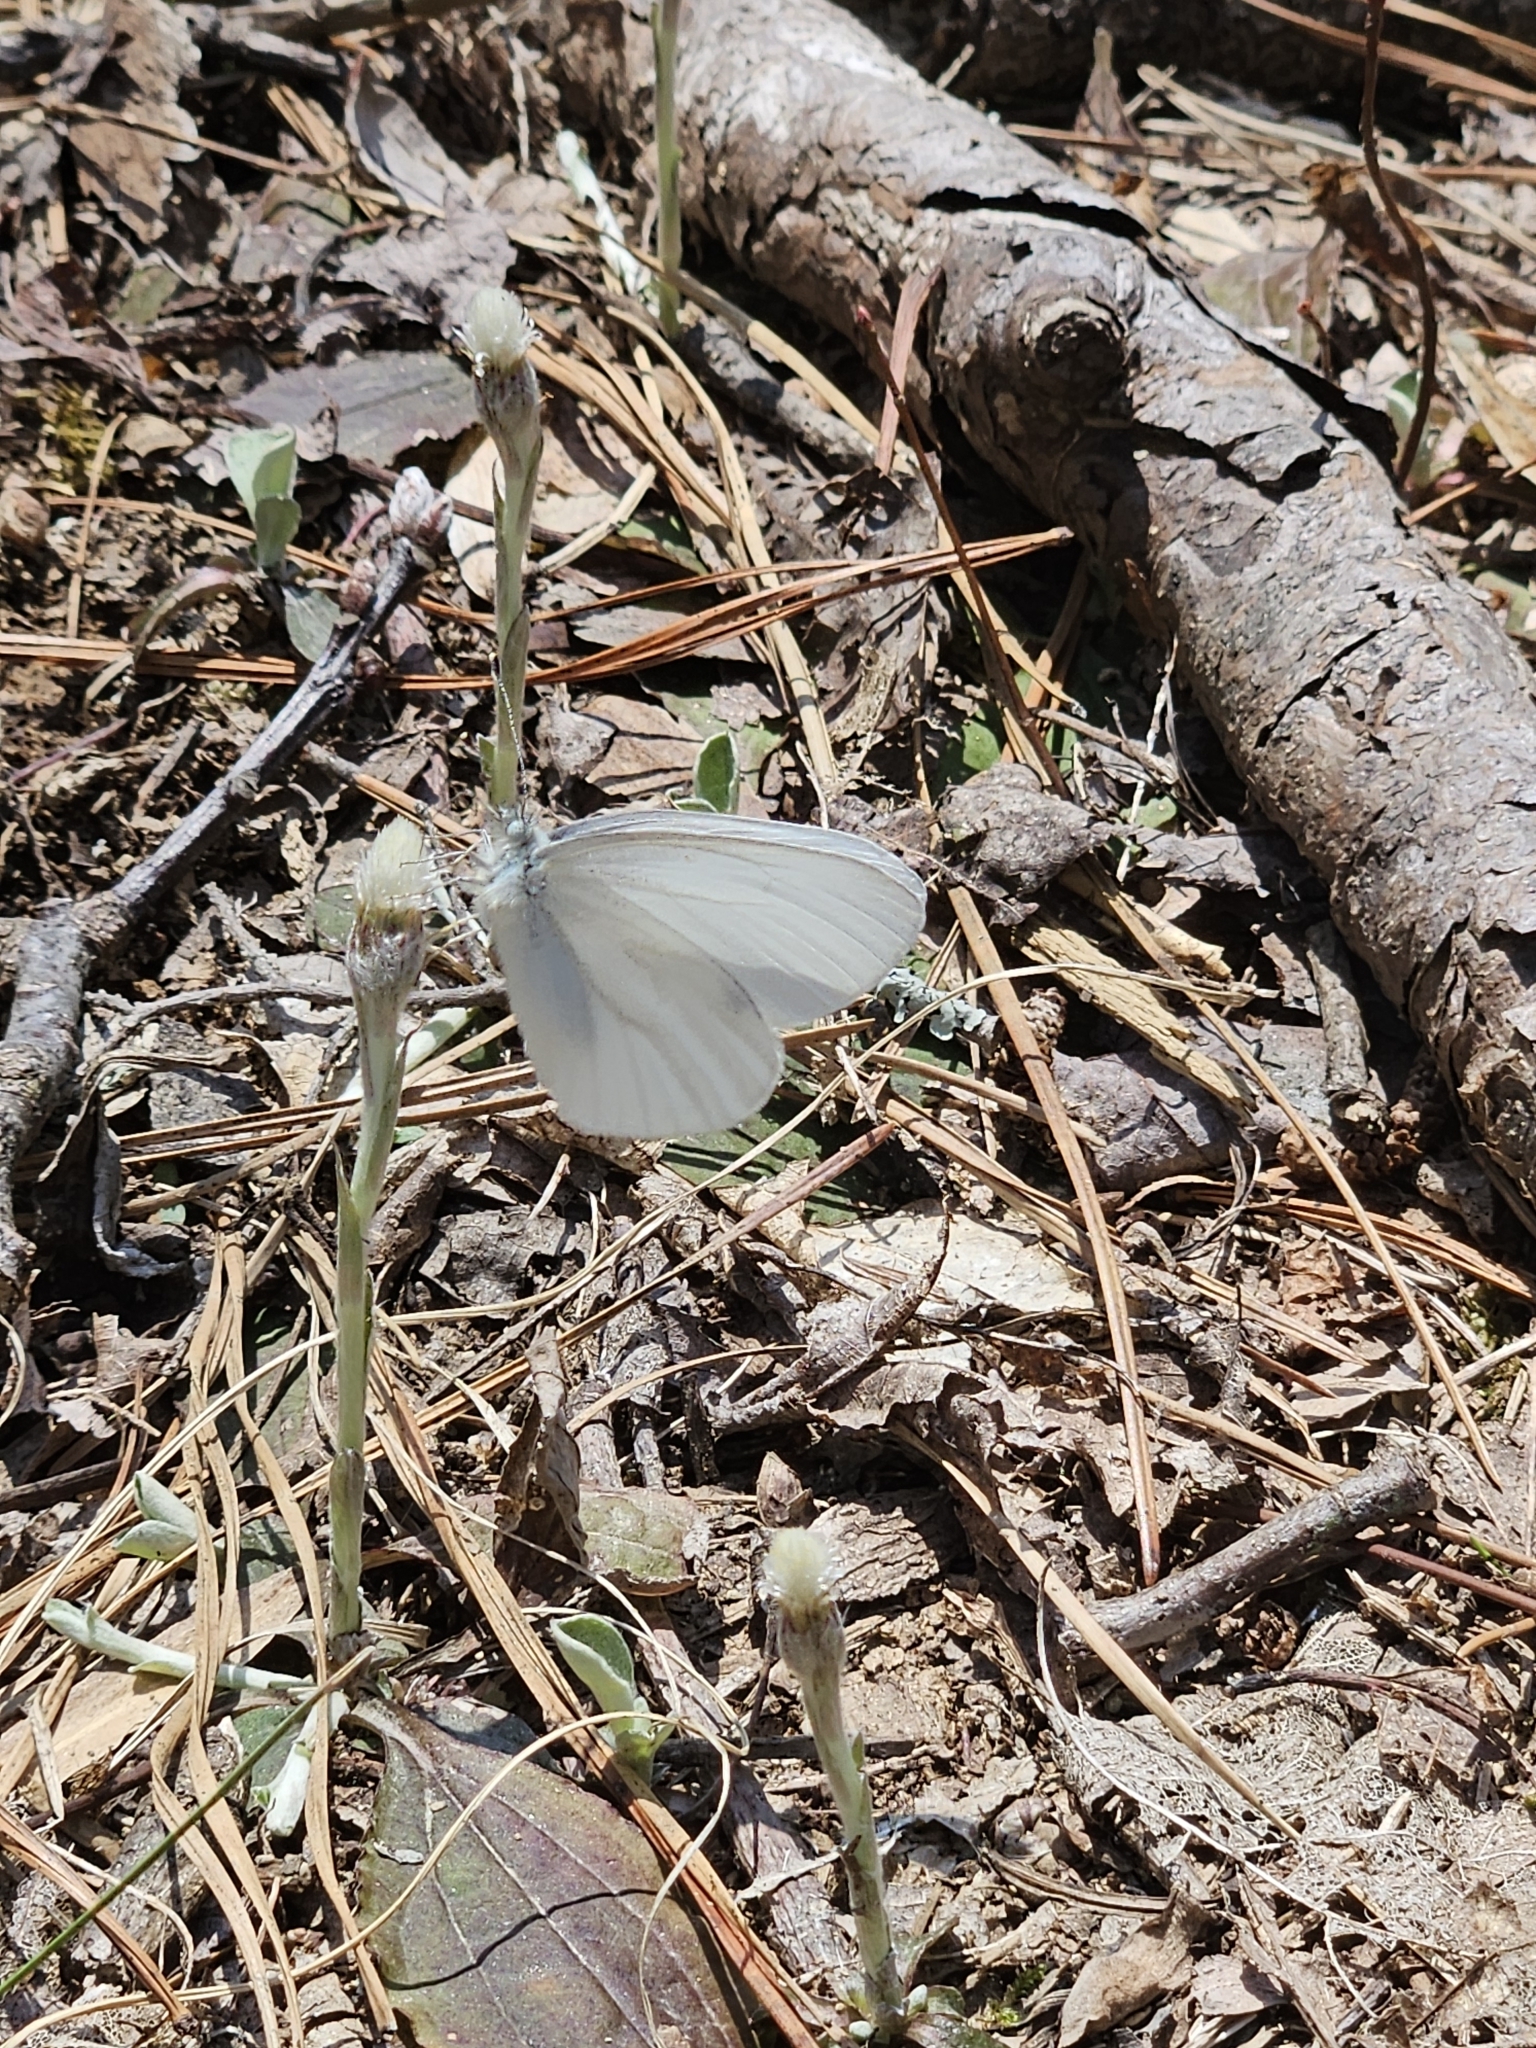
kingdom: Animalia
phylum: Arthropoda
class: Insecta
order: Lepidoptera
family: Pieridae
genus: Pieris
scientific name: Pieris virginiensis
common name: West virginia white
